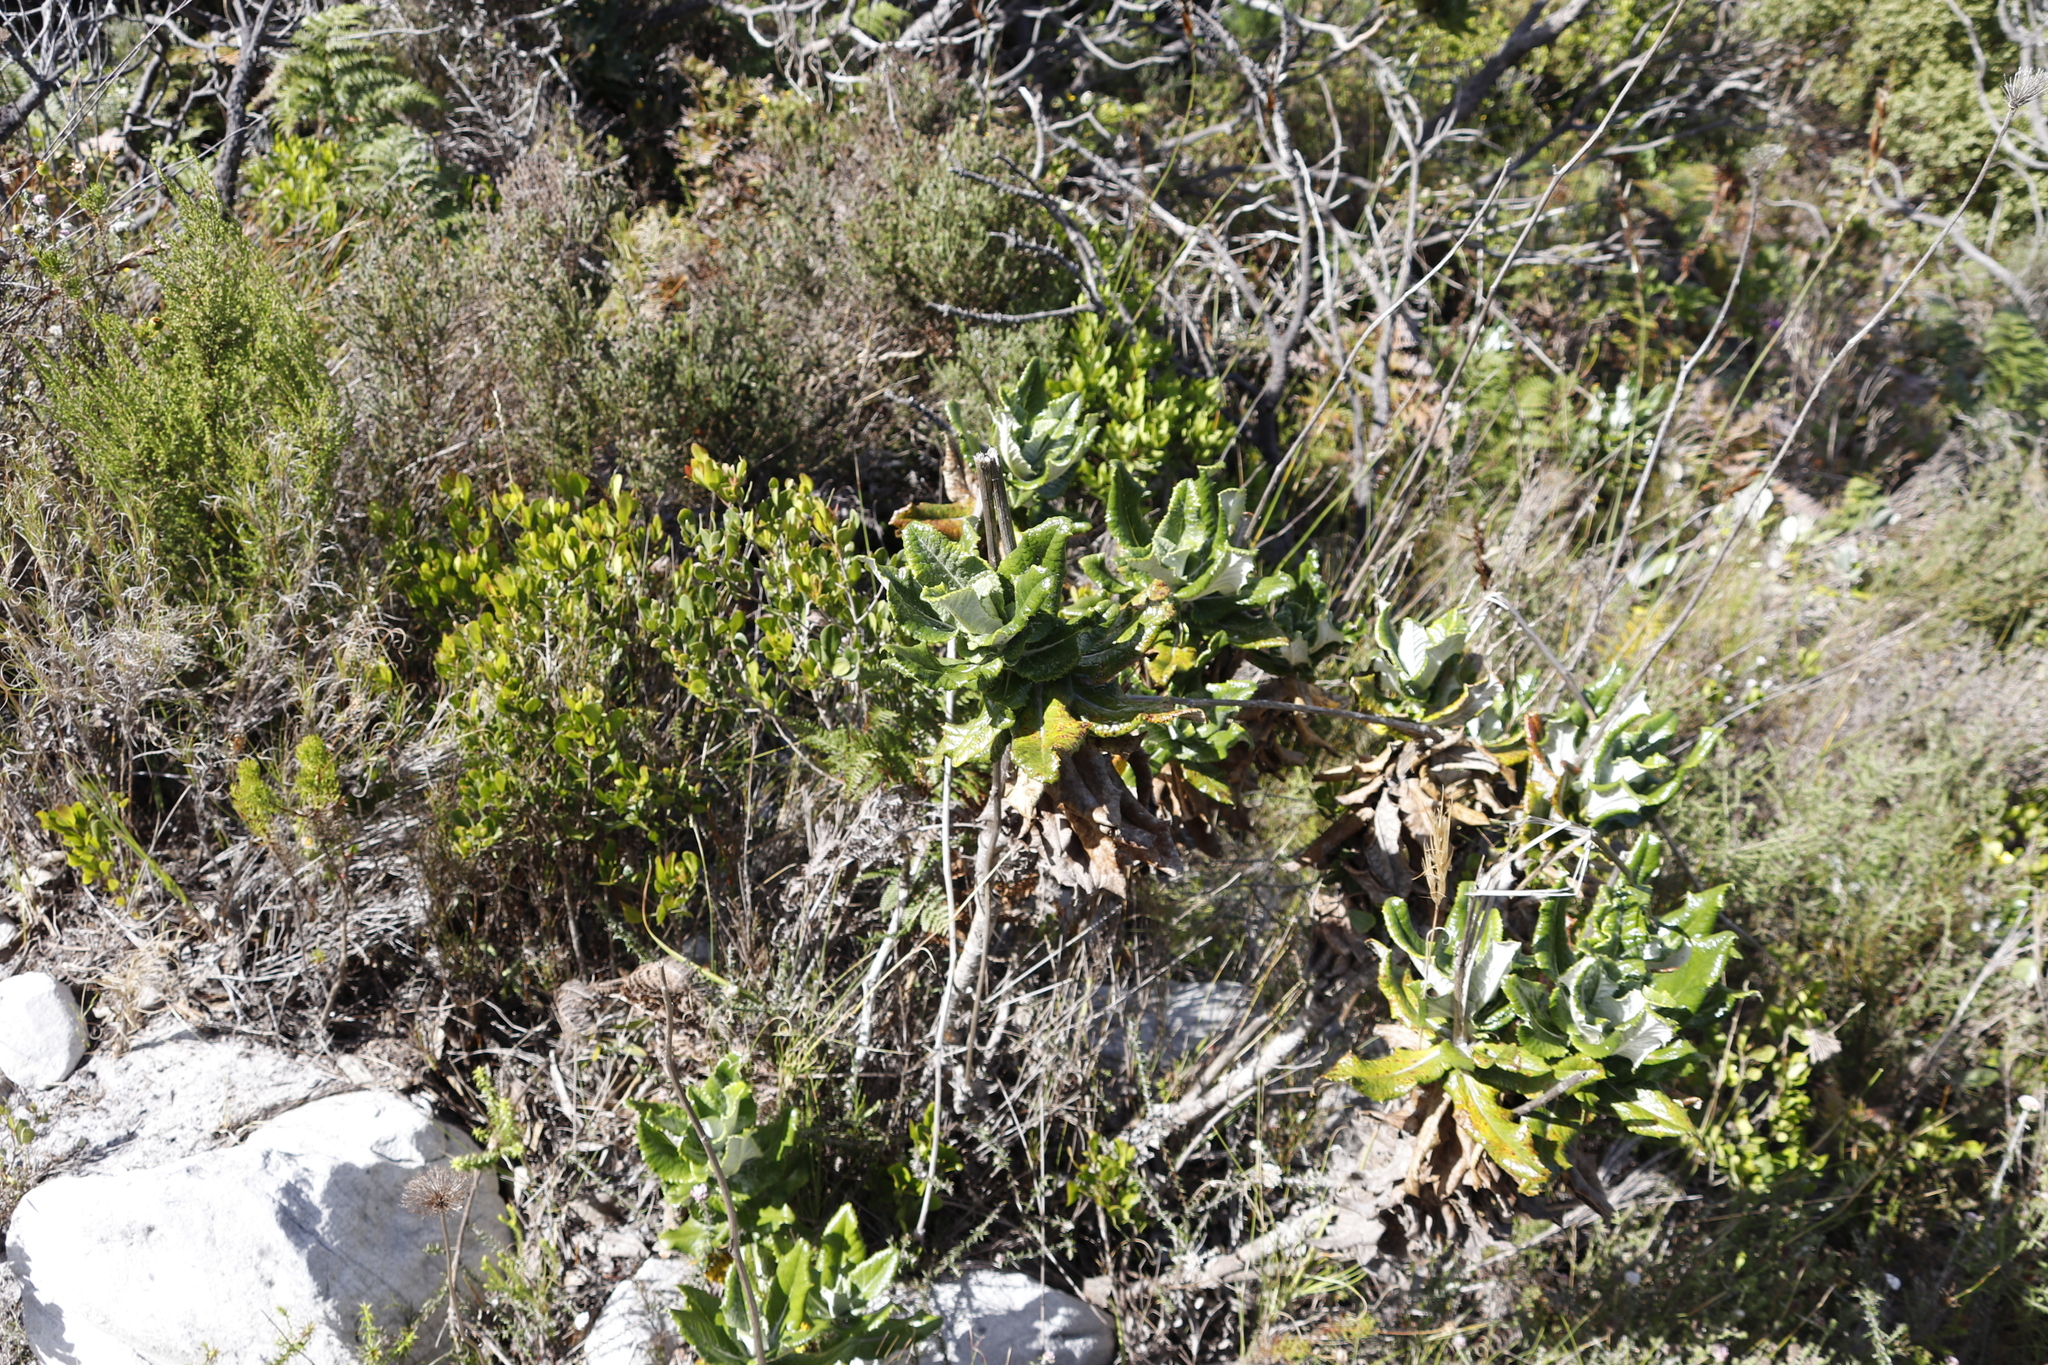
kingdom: Plantae
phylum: Tracheophyta
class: Magnoliopsida
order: Apiales
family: Apiaceae
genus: Hermas
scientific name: Hermas villosa
